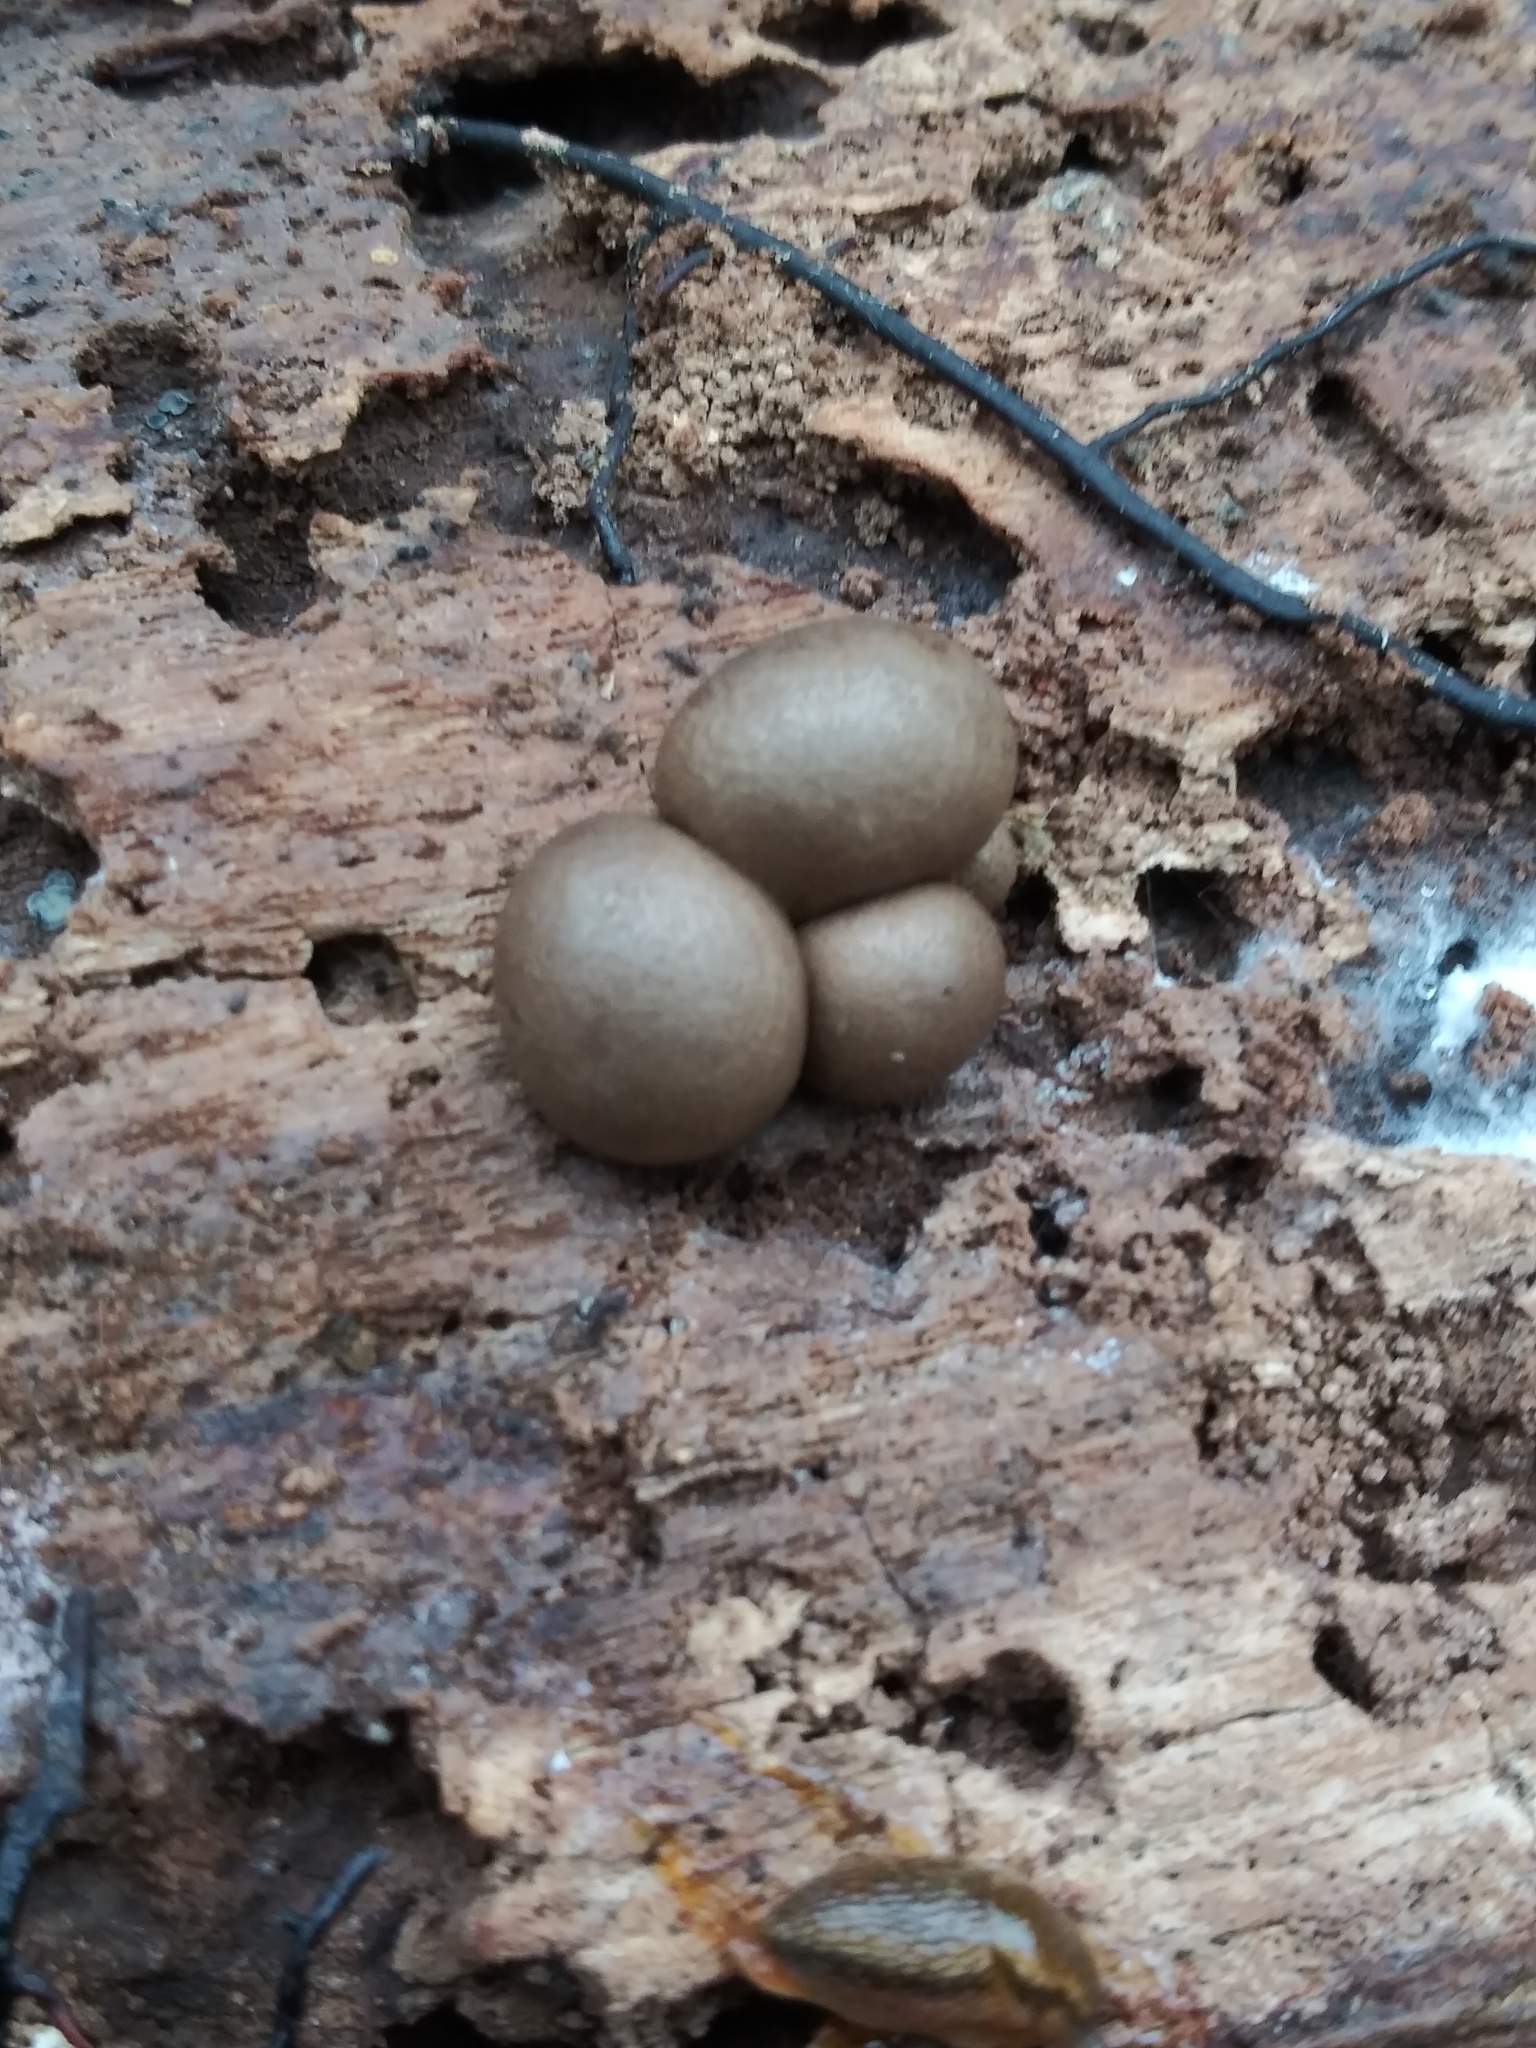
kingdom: Protozoa
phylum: Mycetozoa
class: Myxomycetes
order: Cribrariales
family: Tubiferaceae
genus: Lycogala
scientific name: Lycogala epidendrum
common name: Wolf's milk
